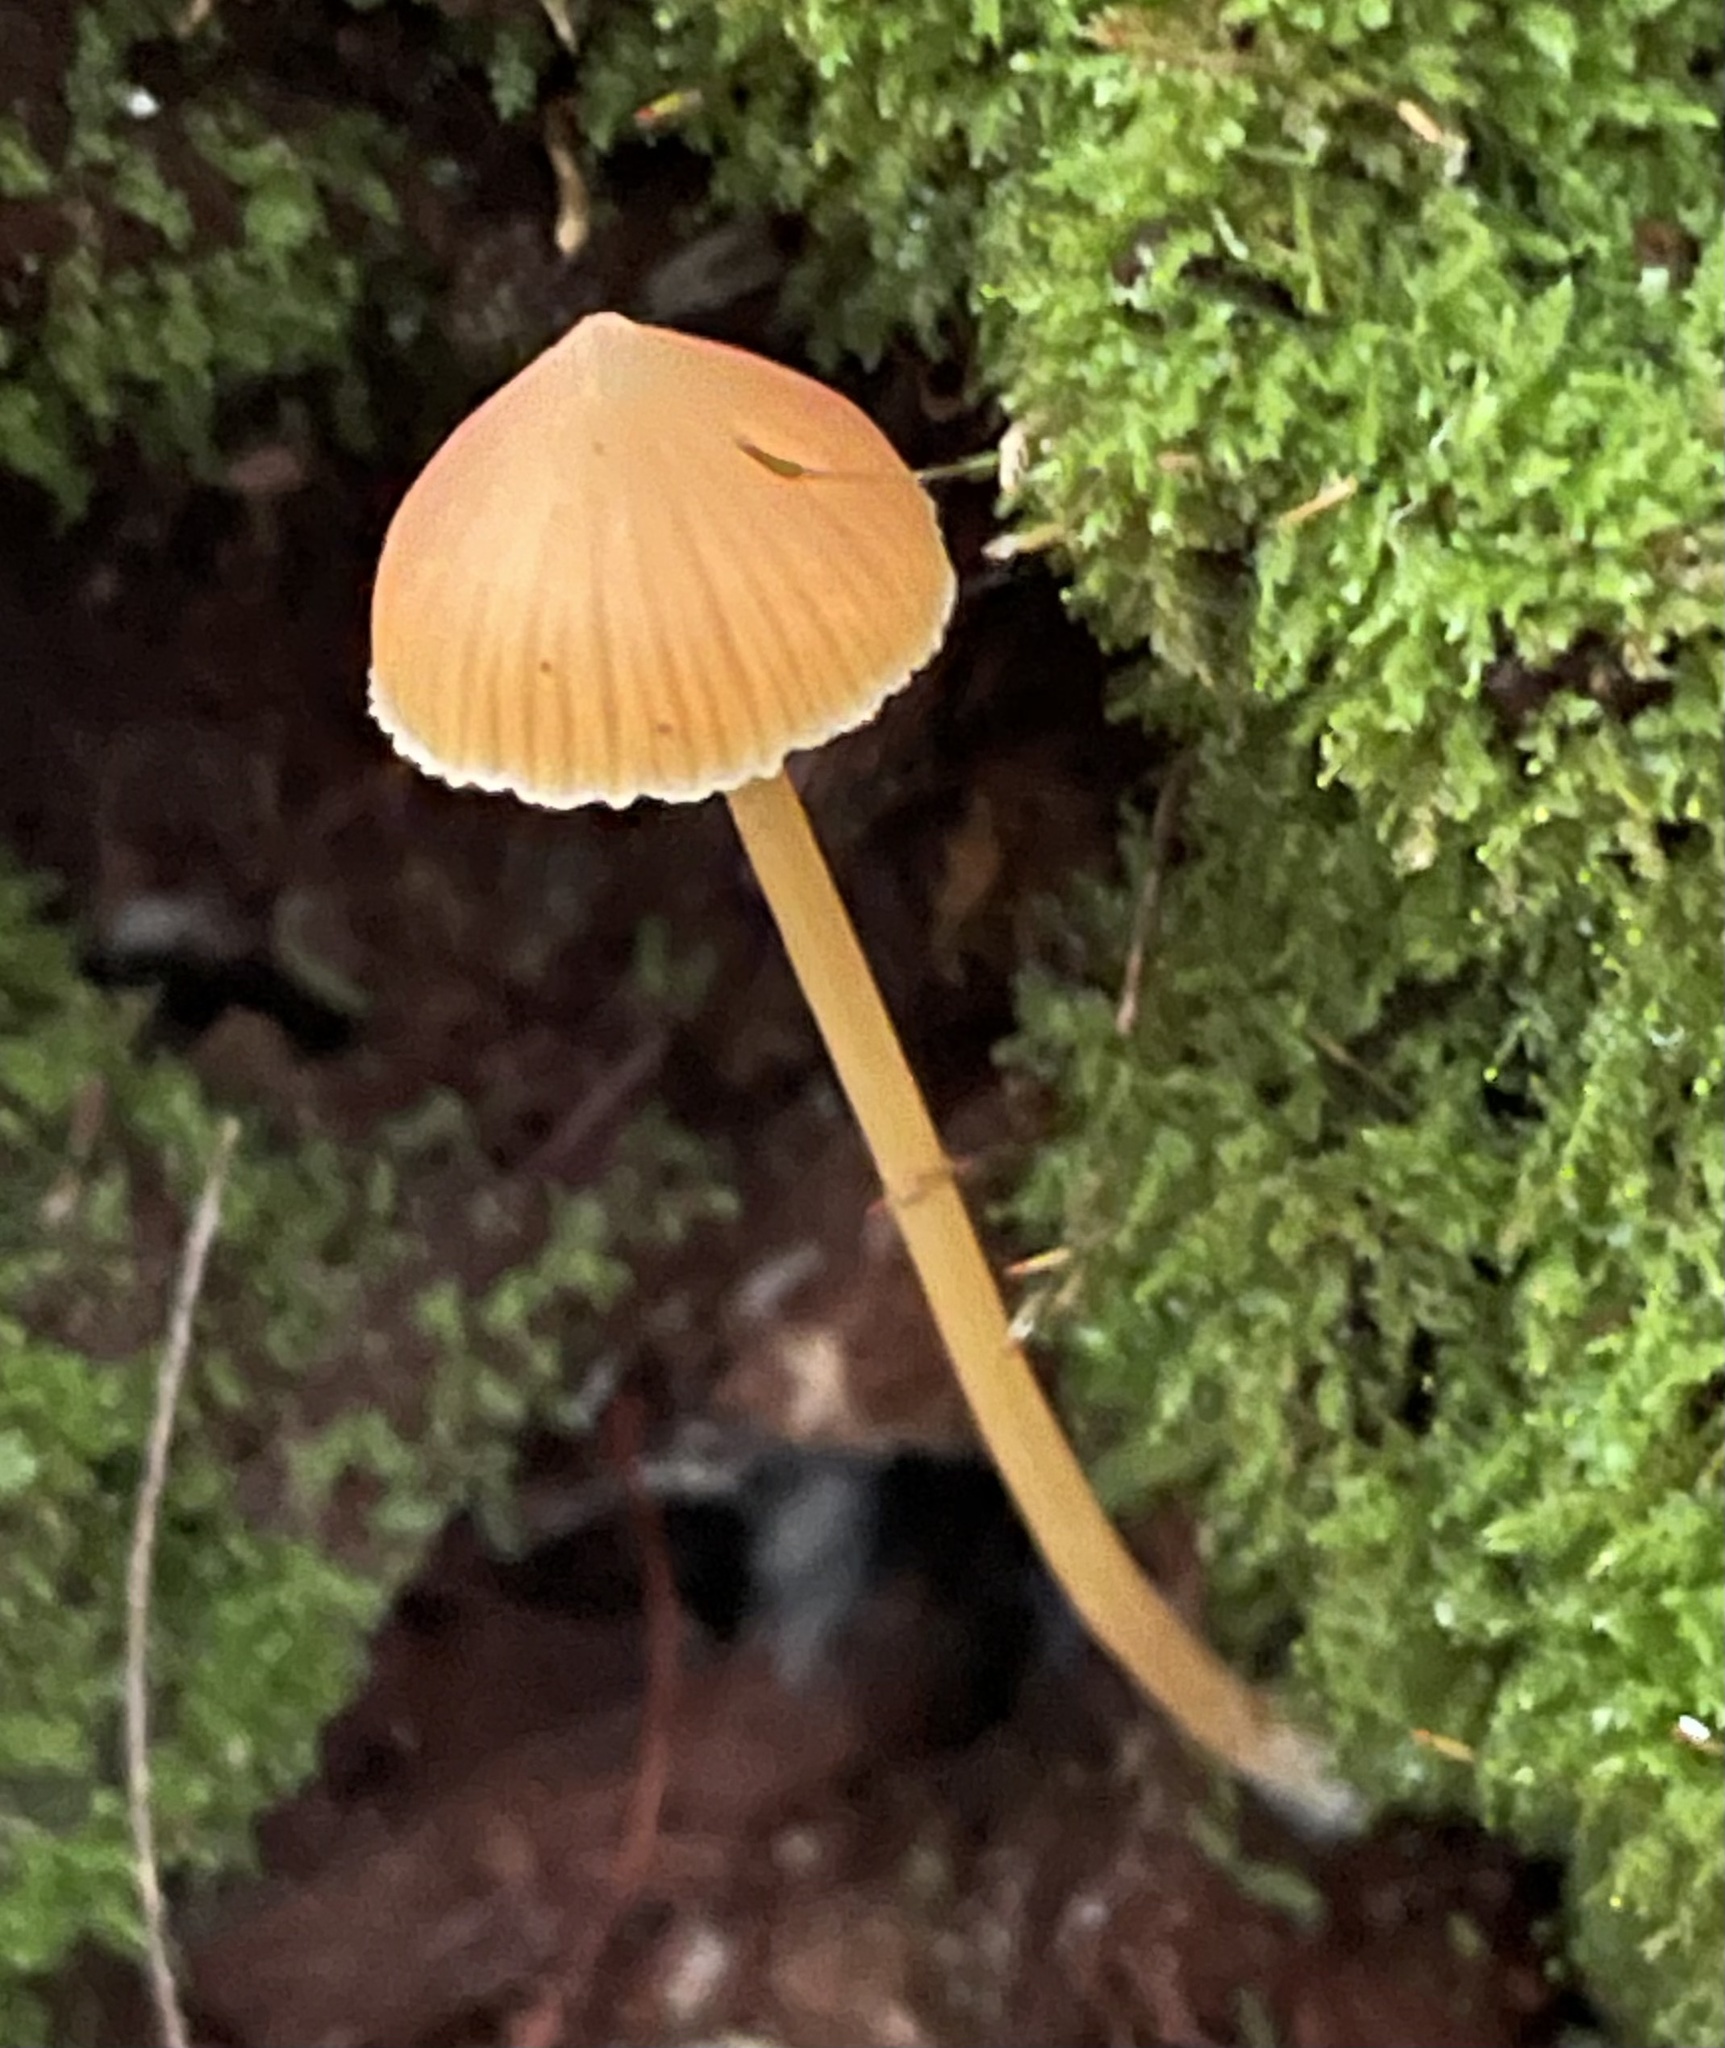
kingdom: Fungi
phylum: Basidiomycota
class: Agaricomycetes
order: Agaricales
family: Entolomataceae
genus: Entoloma
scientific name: Entoloma quadratum
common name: Salmon pinkgill
